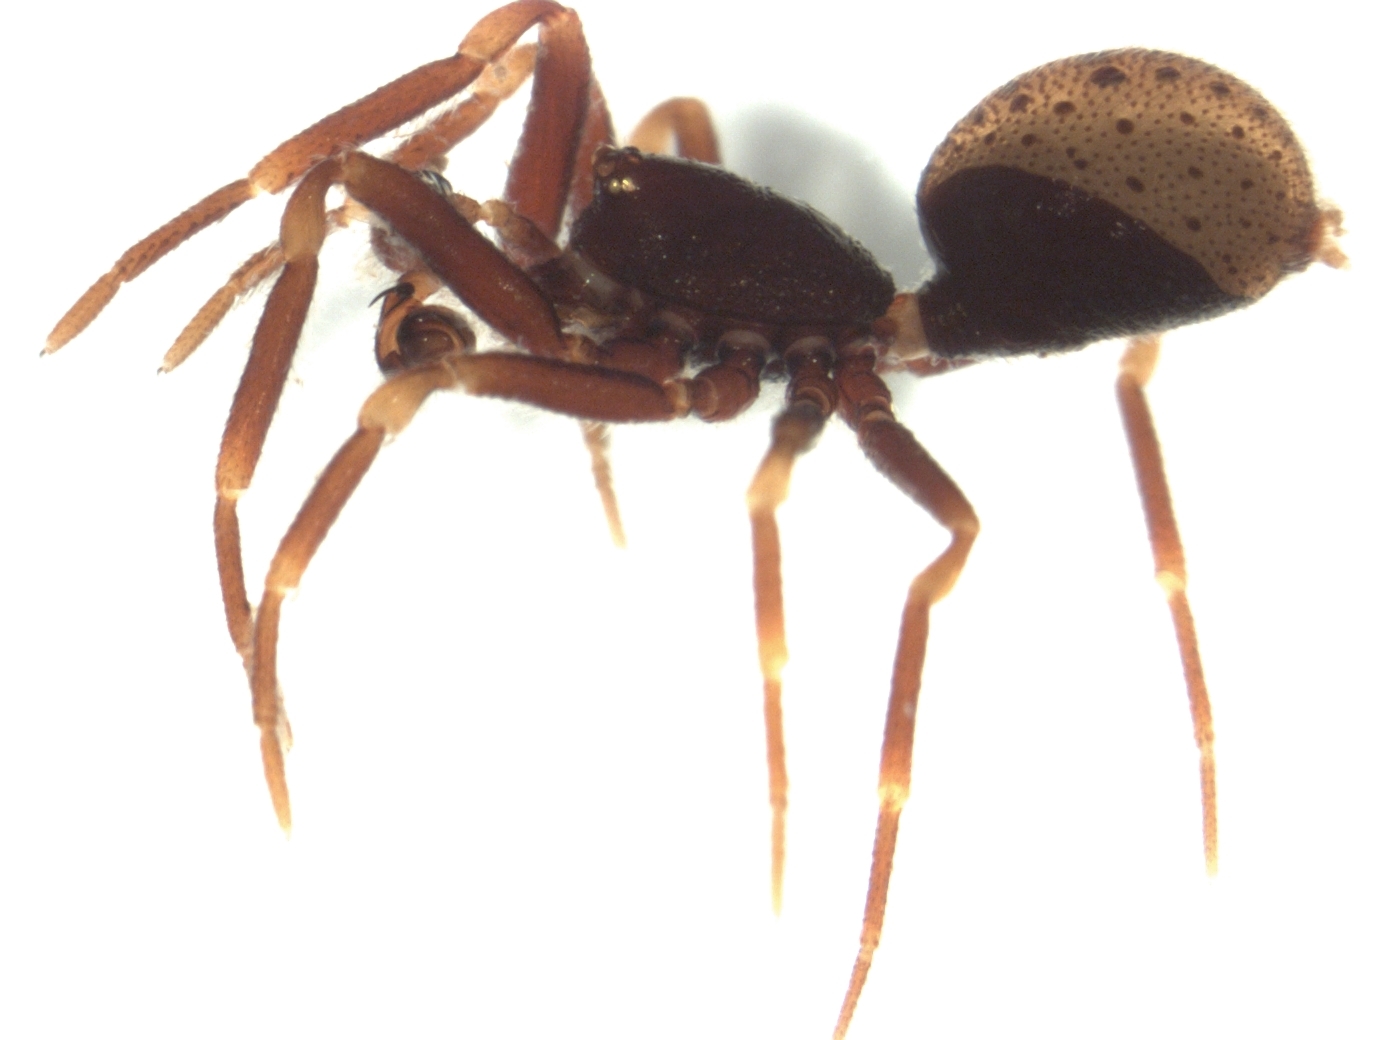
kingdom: Animalia
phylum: Arthropoda
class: Arachnida
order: Araneae
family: Malkaridae
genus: Tingotingo
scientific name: Tingotingo tokorera
